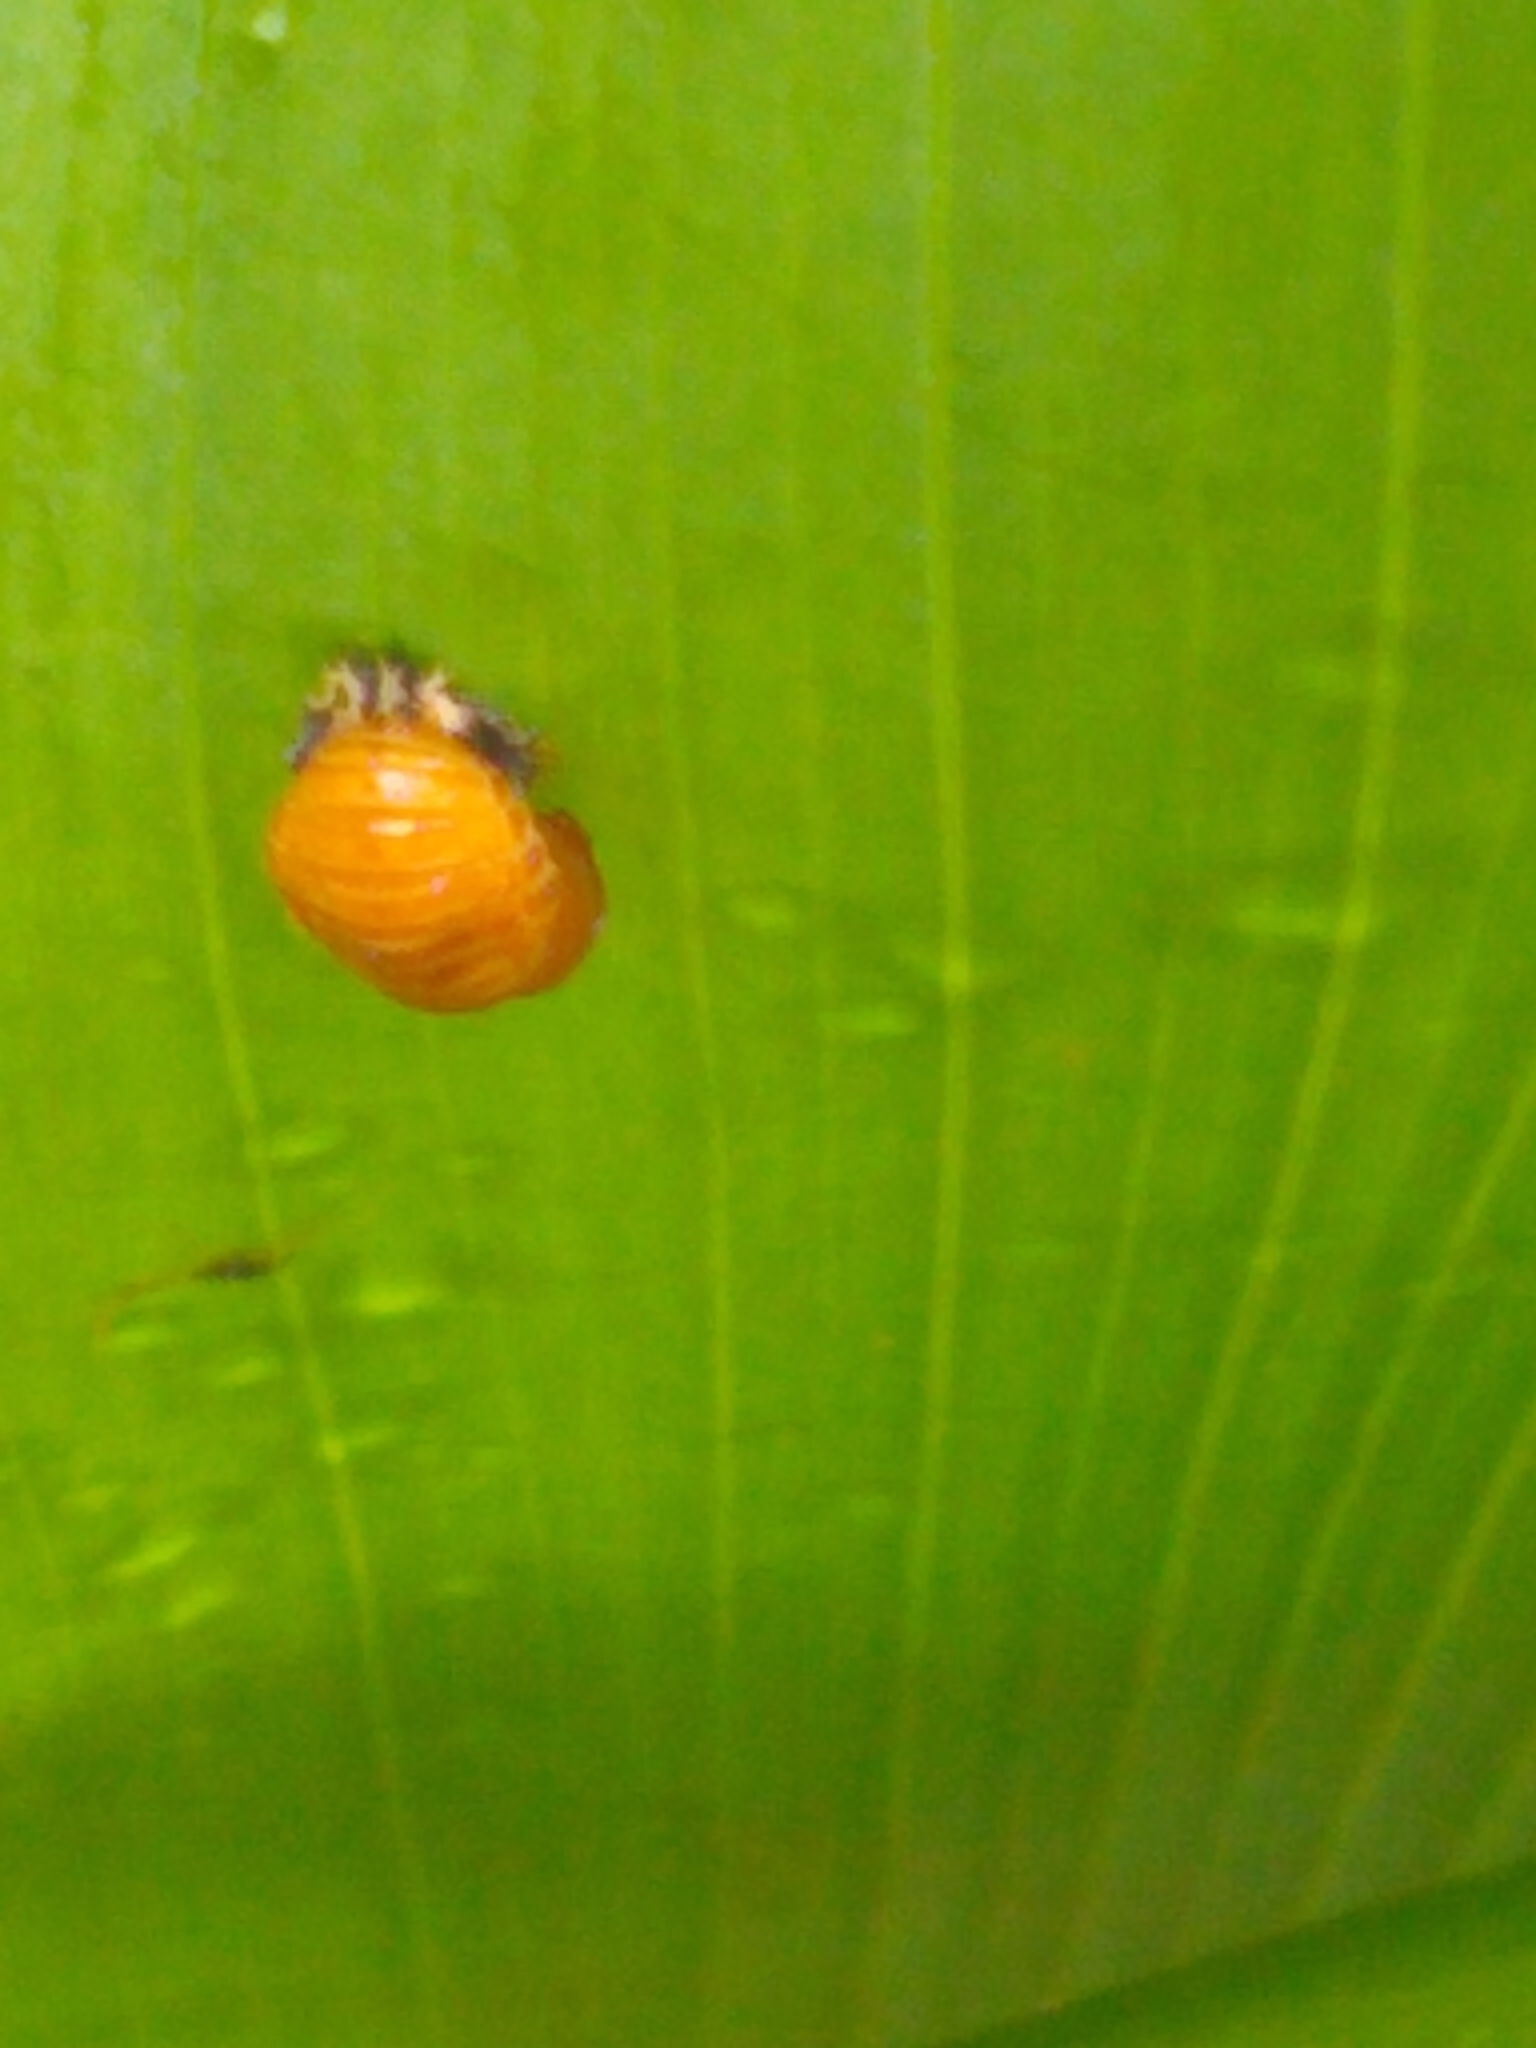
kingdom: Animalia
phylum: Arthropoda
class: Insecta
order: Coleoptera
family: Coccinellidae
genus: Harmonia
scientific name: Harmonia axyridis
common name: Harlequin ladybird
